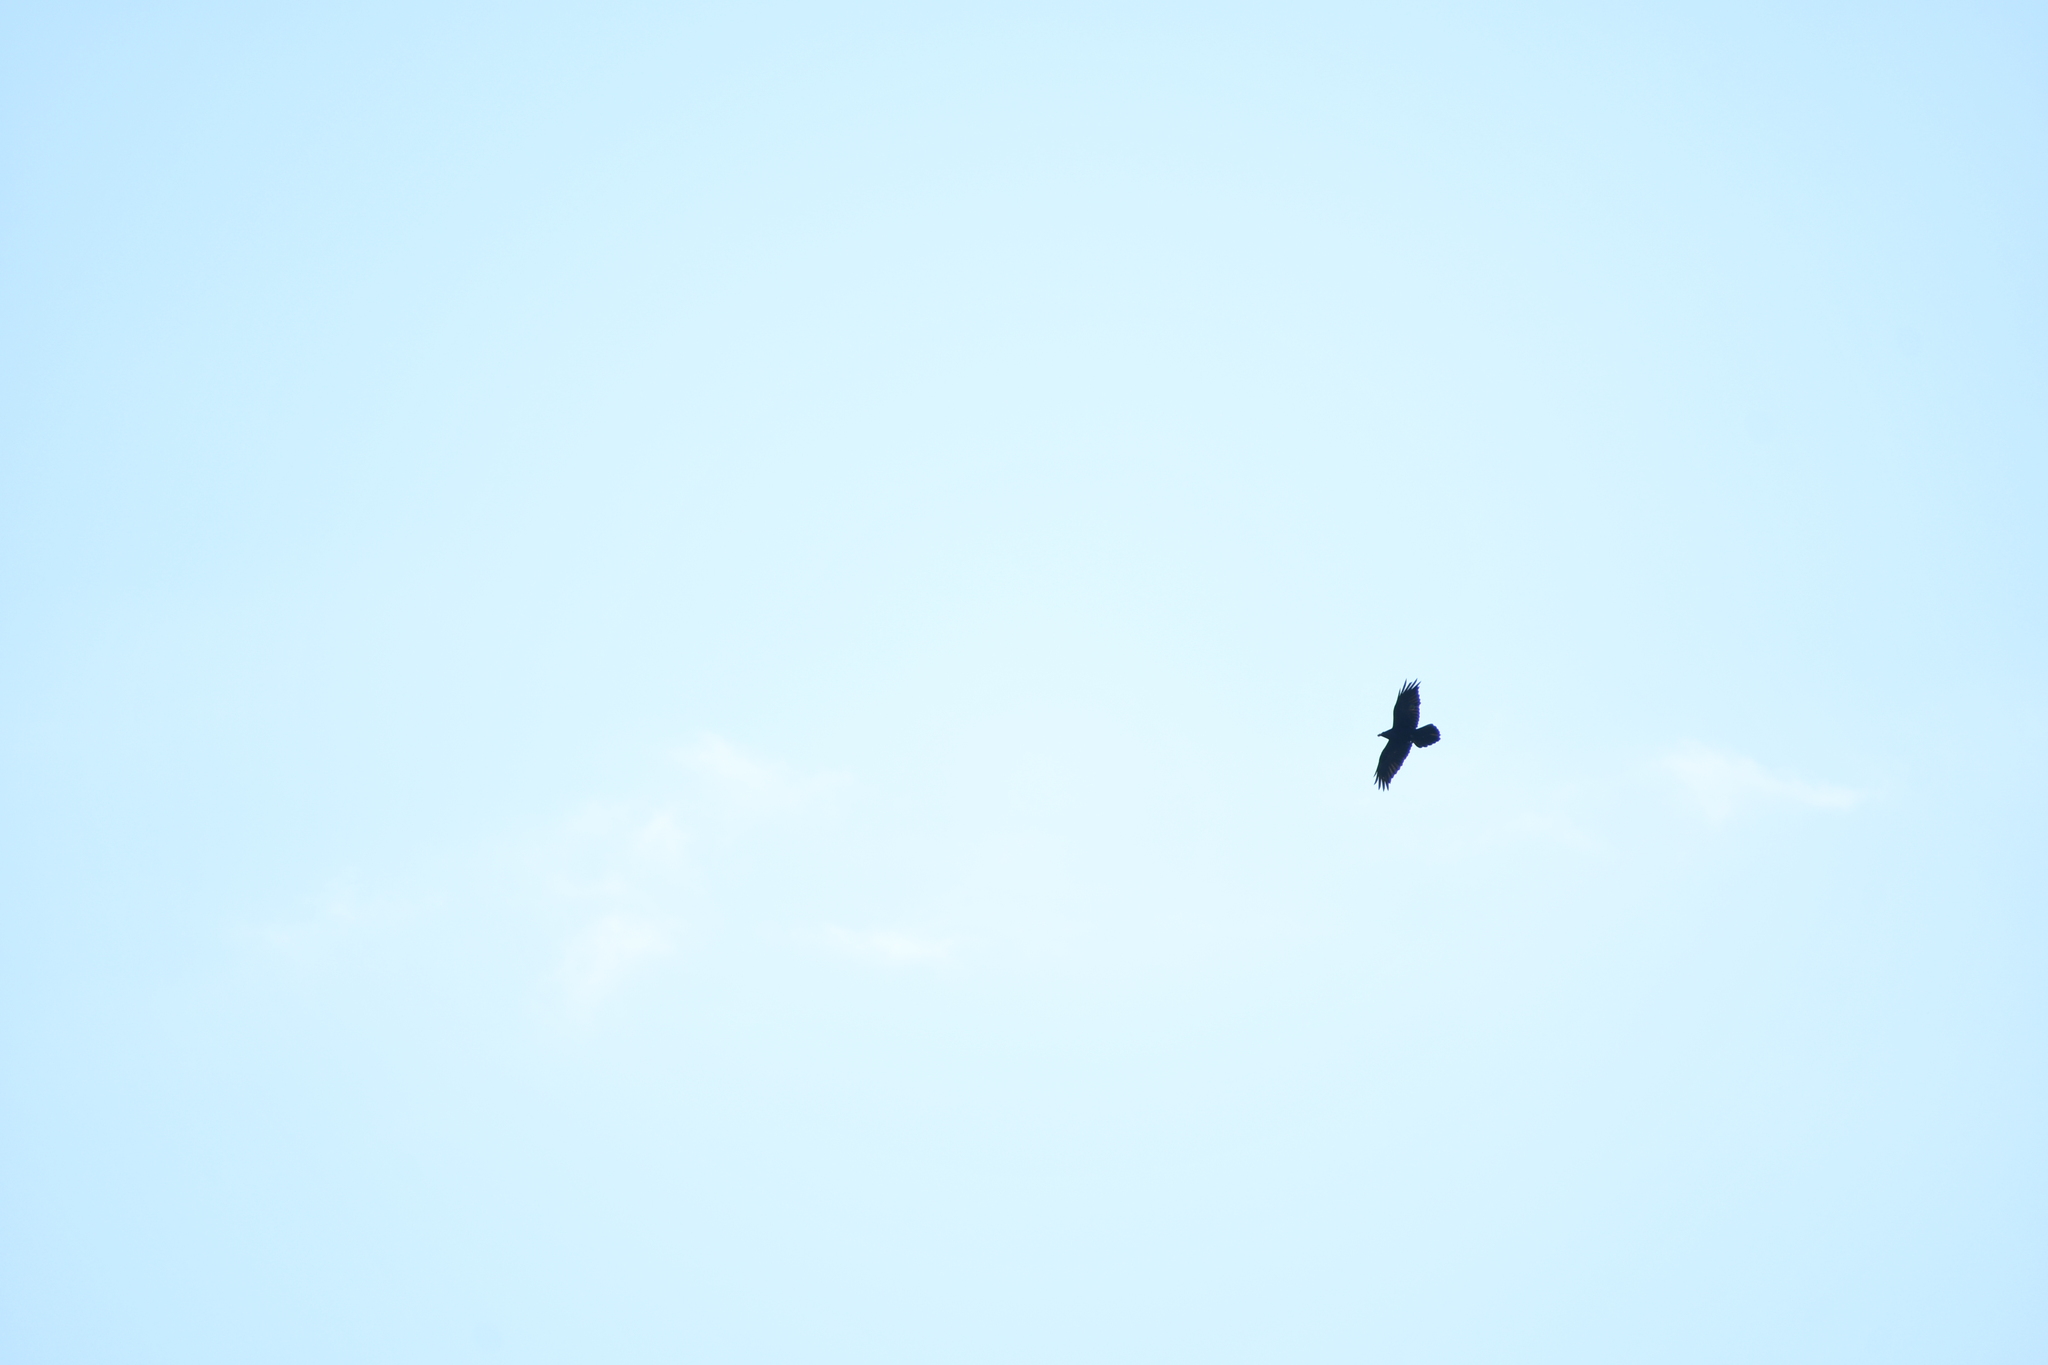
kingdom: Animalia
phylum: Chordata
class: Aves
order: Passeriformes
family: Corvidae
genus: Corvus
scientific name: Corvus corax
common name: Common raven
